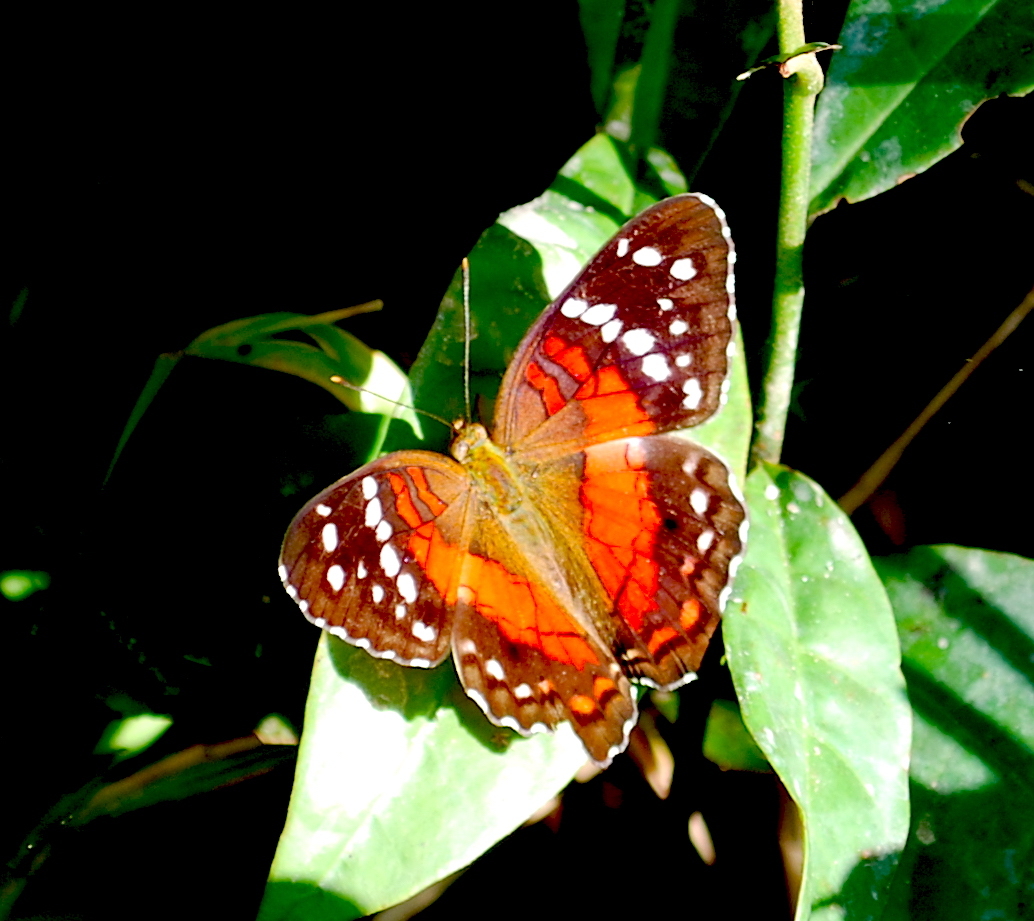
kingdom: Animalia
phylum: Arthropoda
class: Insecta
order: Lepidoptera
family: Nymphalidae
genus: Anartia
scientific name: Anartia amathea
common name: Red peacock
